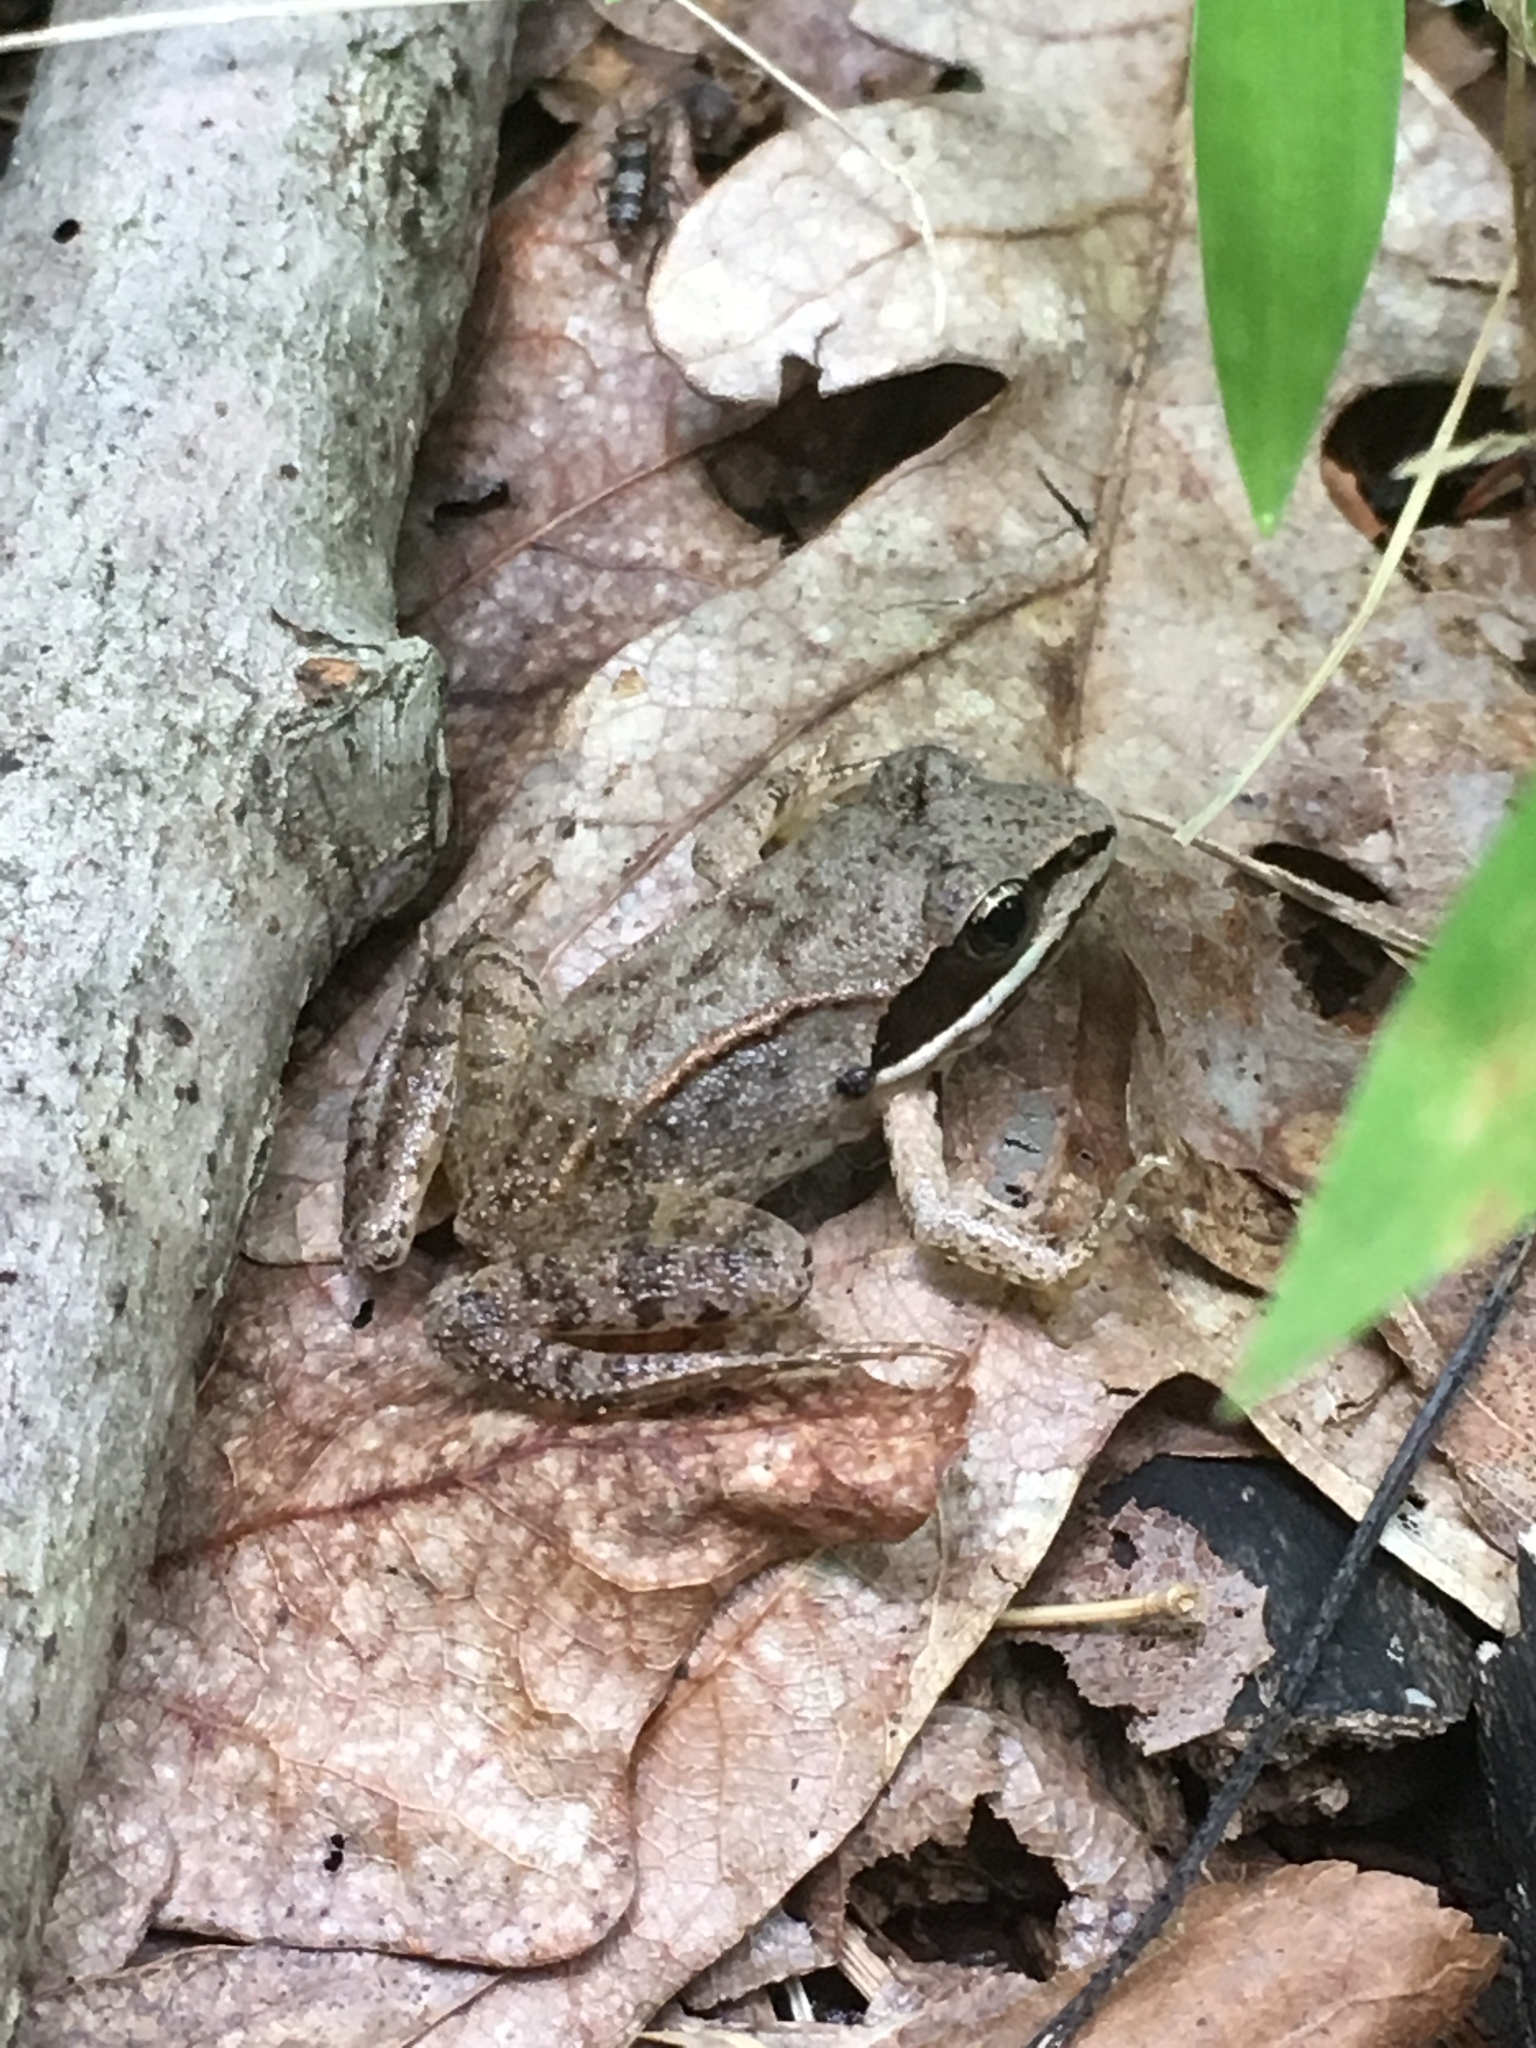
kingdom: Animalia
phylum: Chordata
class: Amphibia
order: Anura
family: Ranidae
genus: Lithobates
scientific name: Lithobates sylvaticus
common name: Wood frog
